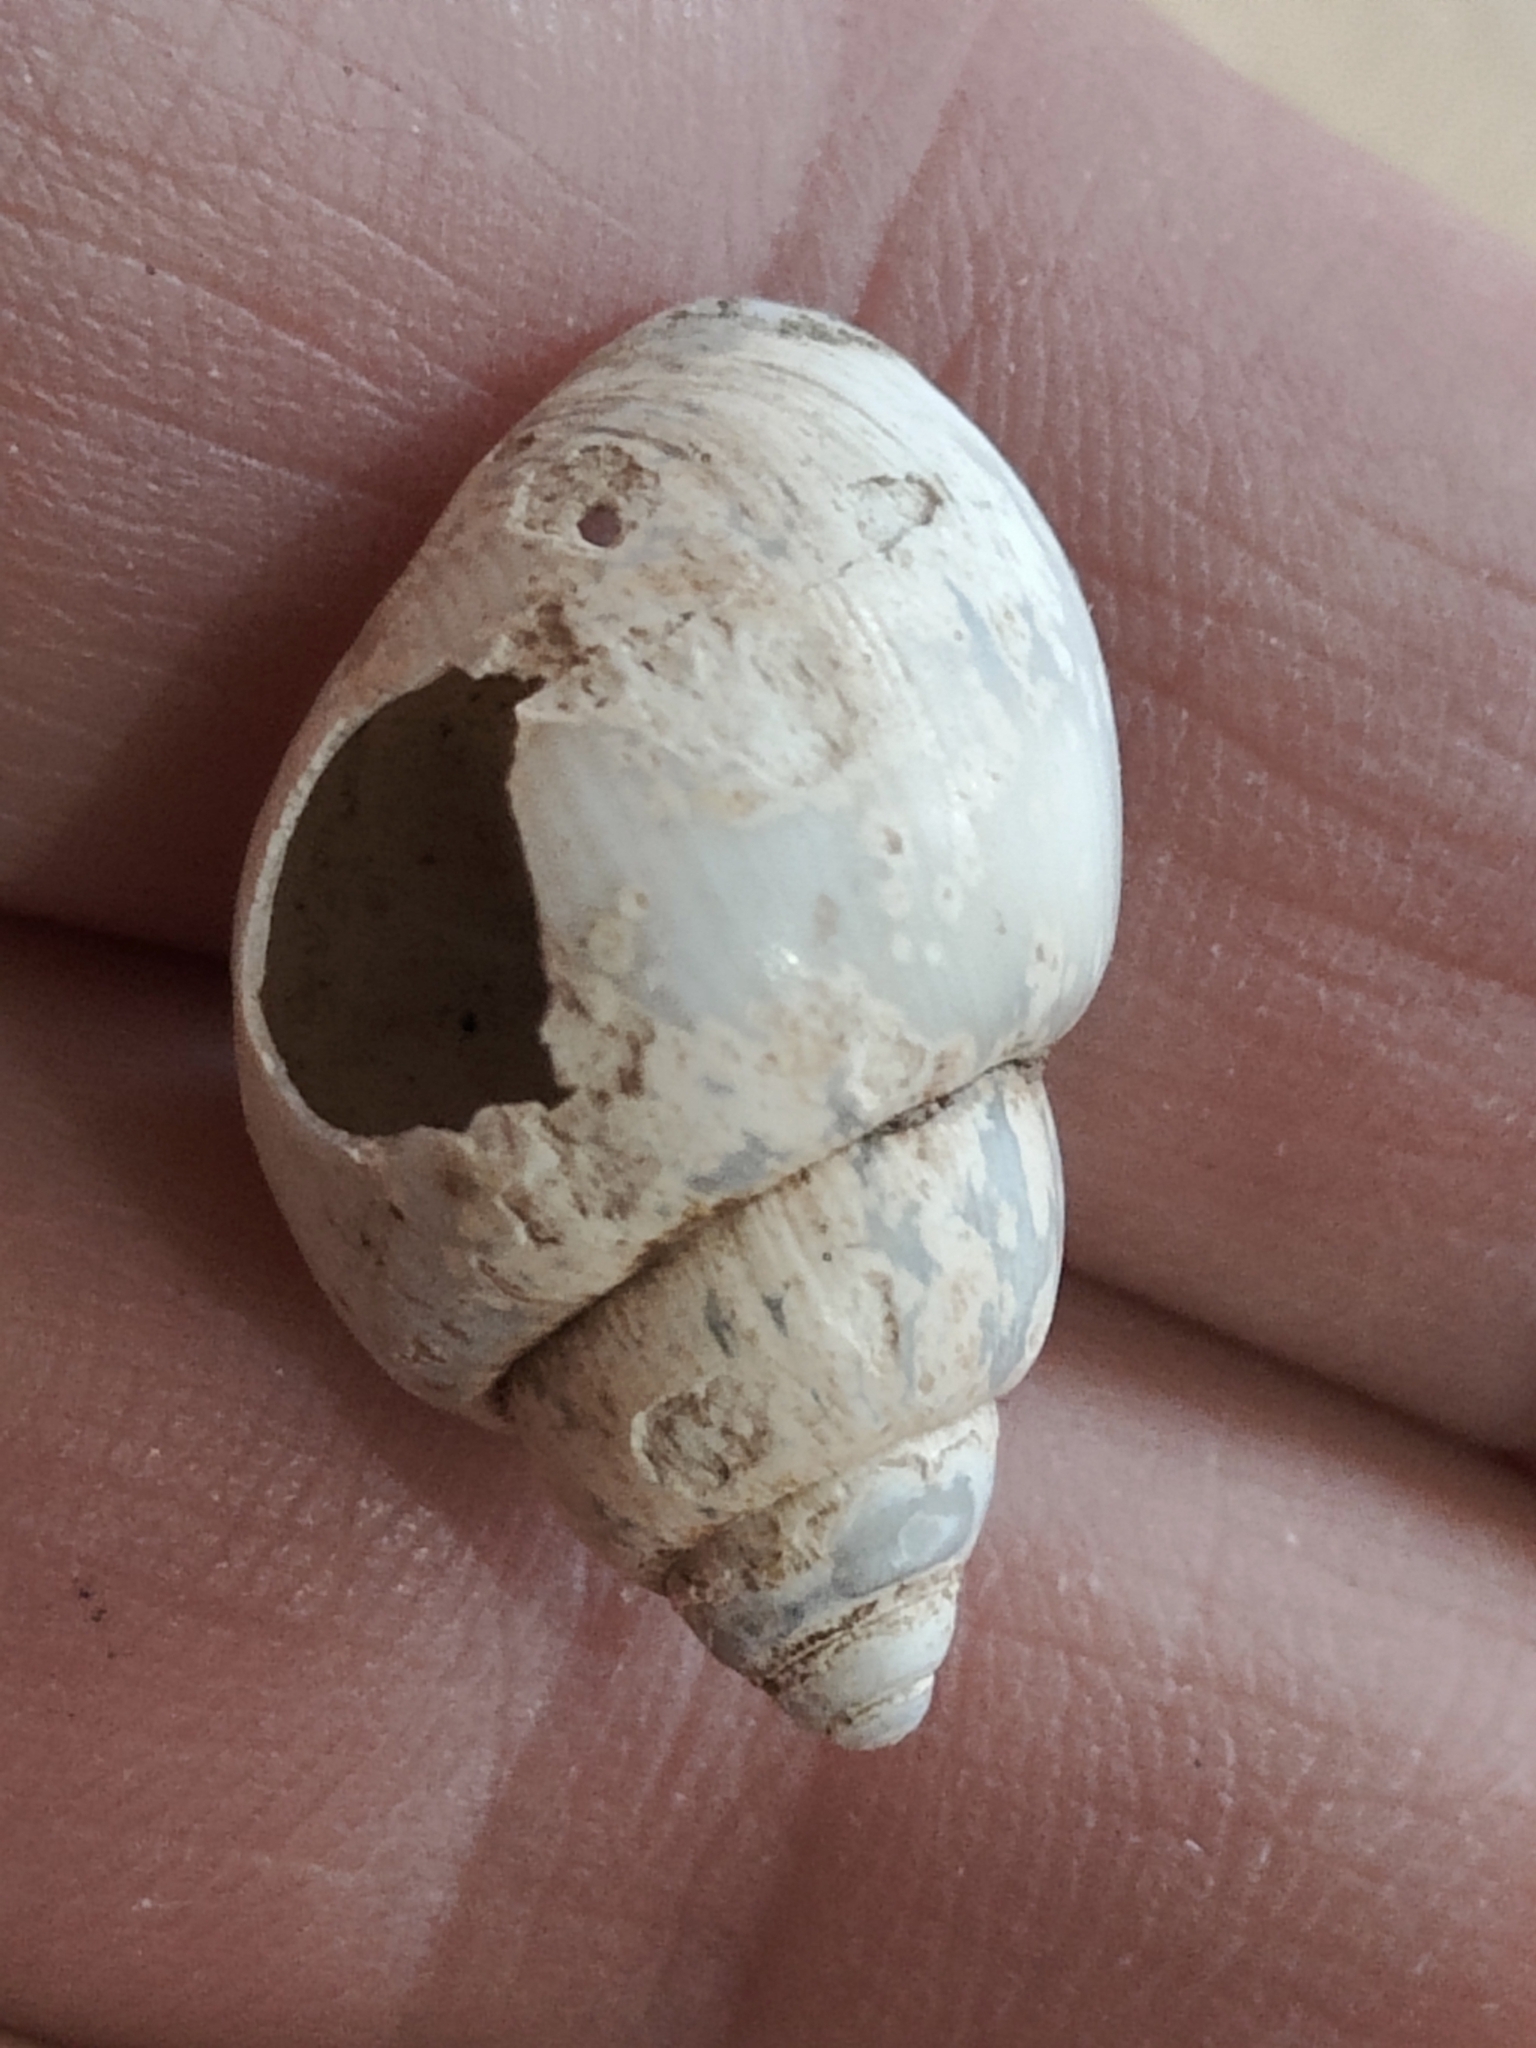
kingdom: Animalia
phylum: Mollusca
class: Gastropoda
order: Architaenioglossa
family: Viviparidae
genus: Campeloma
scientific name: Campeloma decisum
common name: Pointed campeloma
